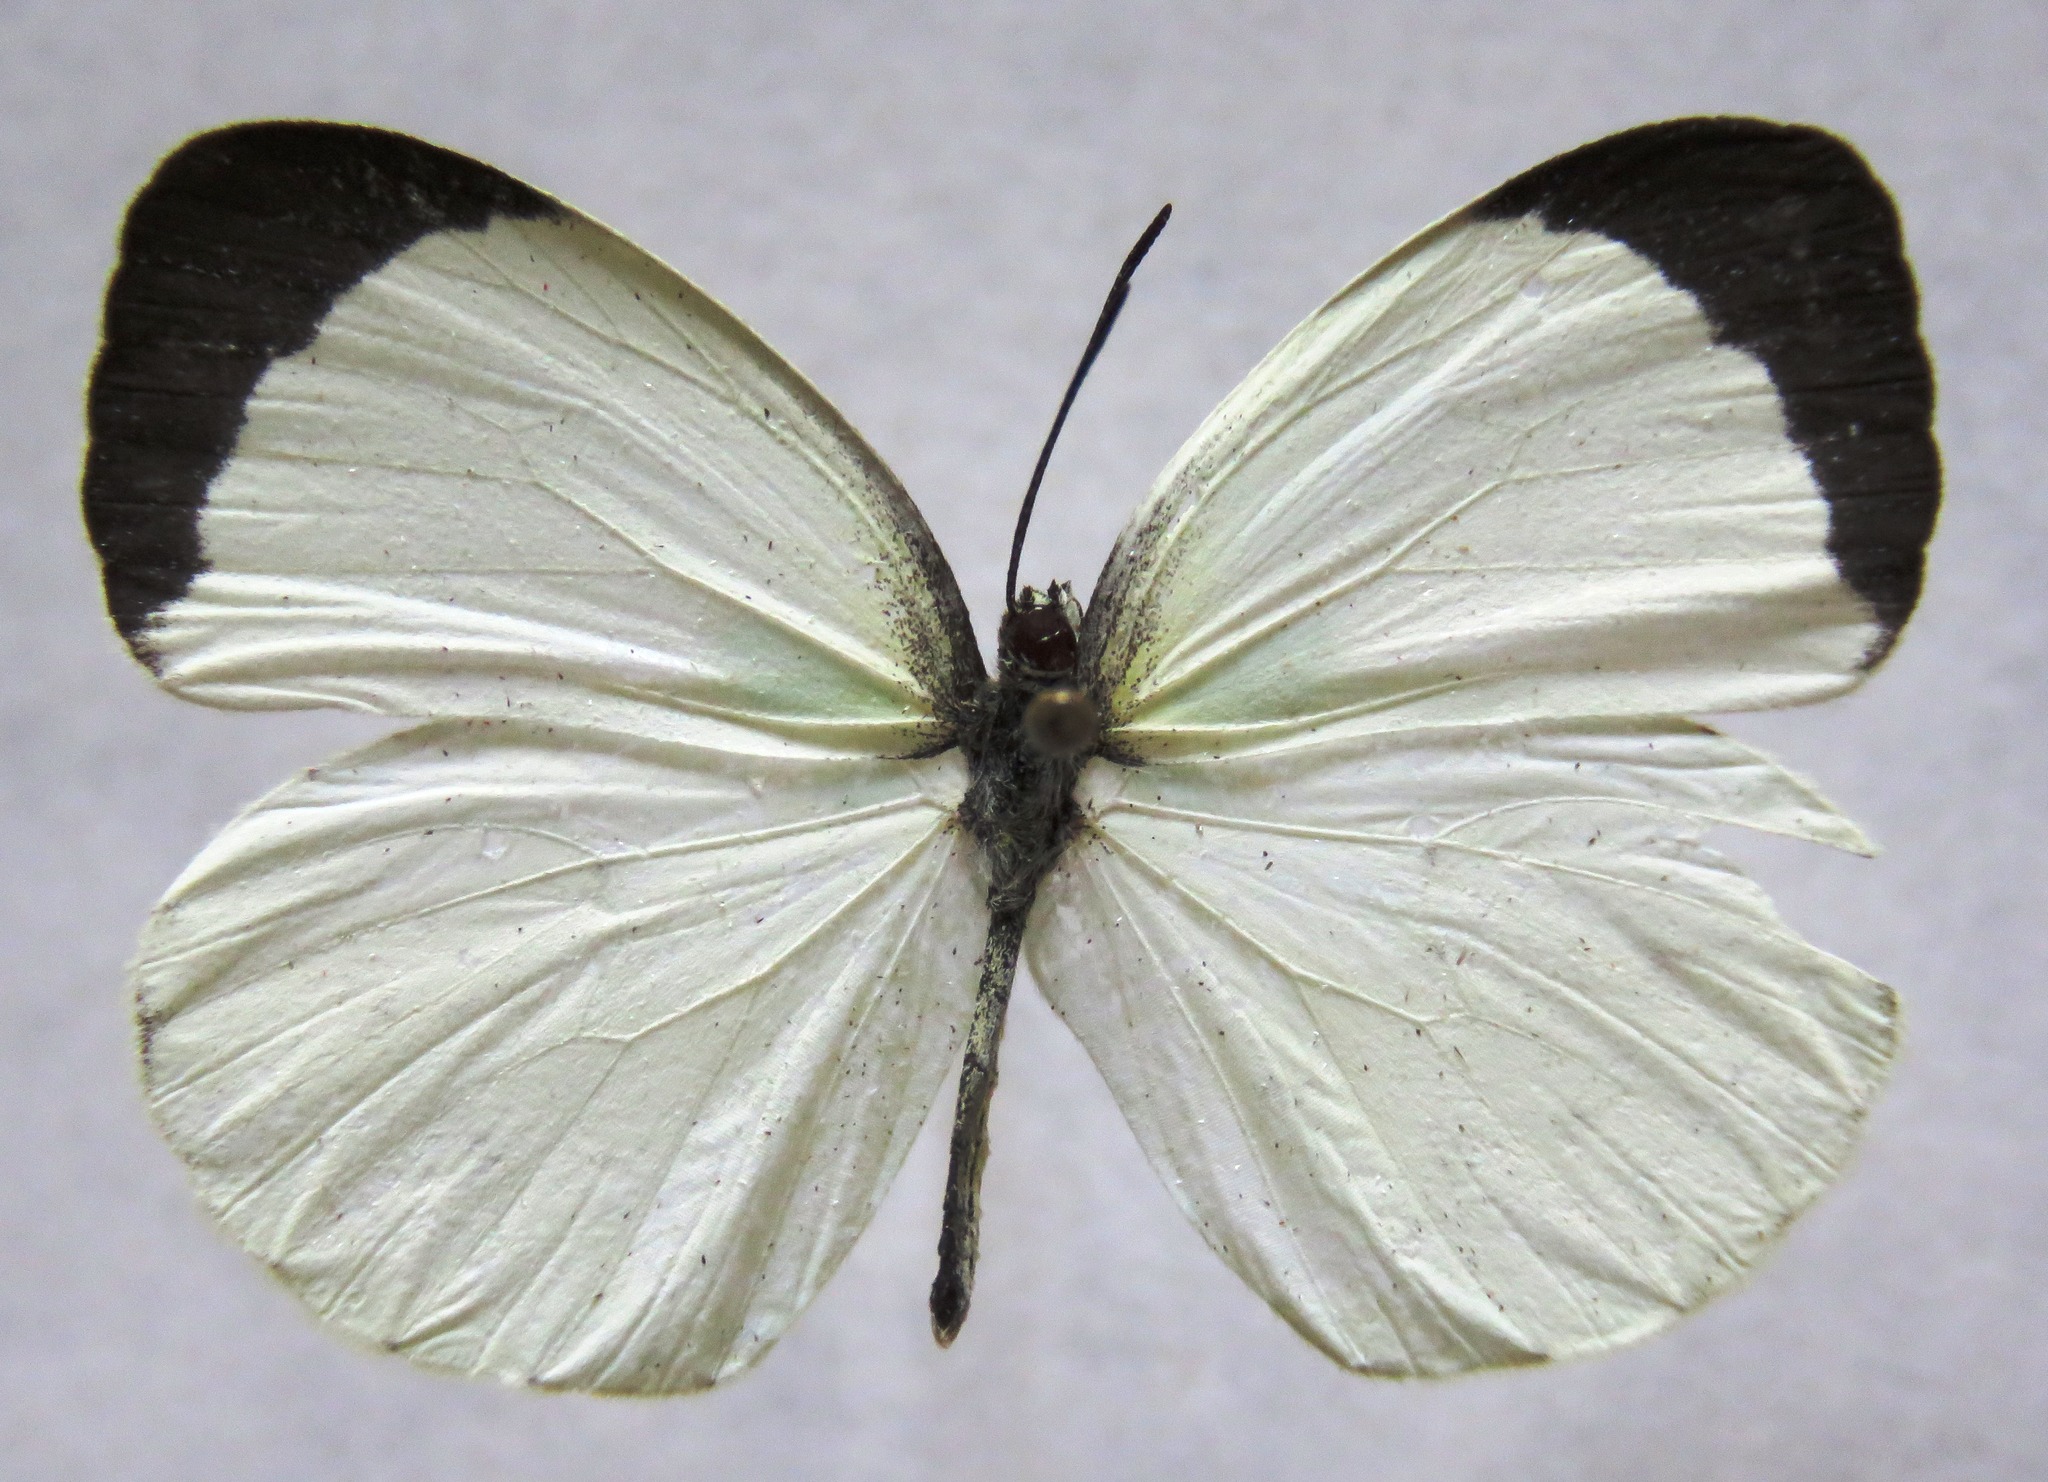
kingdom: Animalia
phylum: Arthropoda
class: Insecta
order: Lepidoptera
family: Pieridae
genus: Abaeis
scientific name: Abaeis albula
